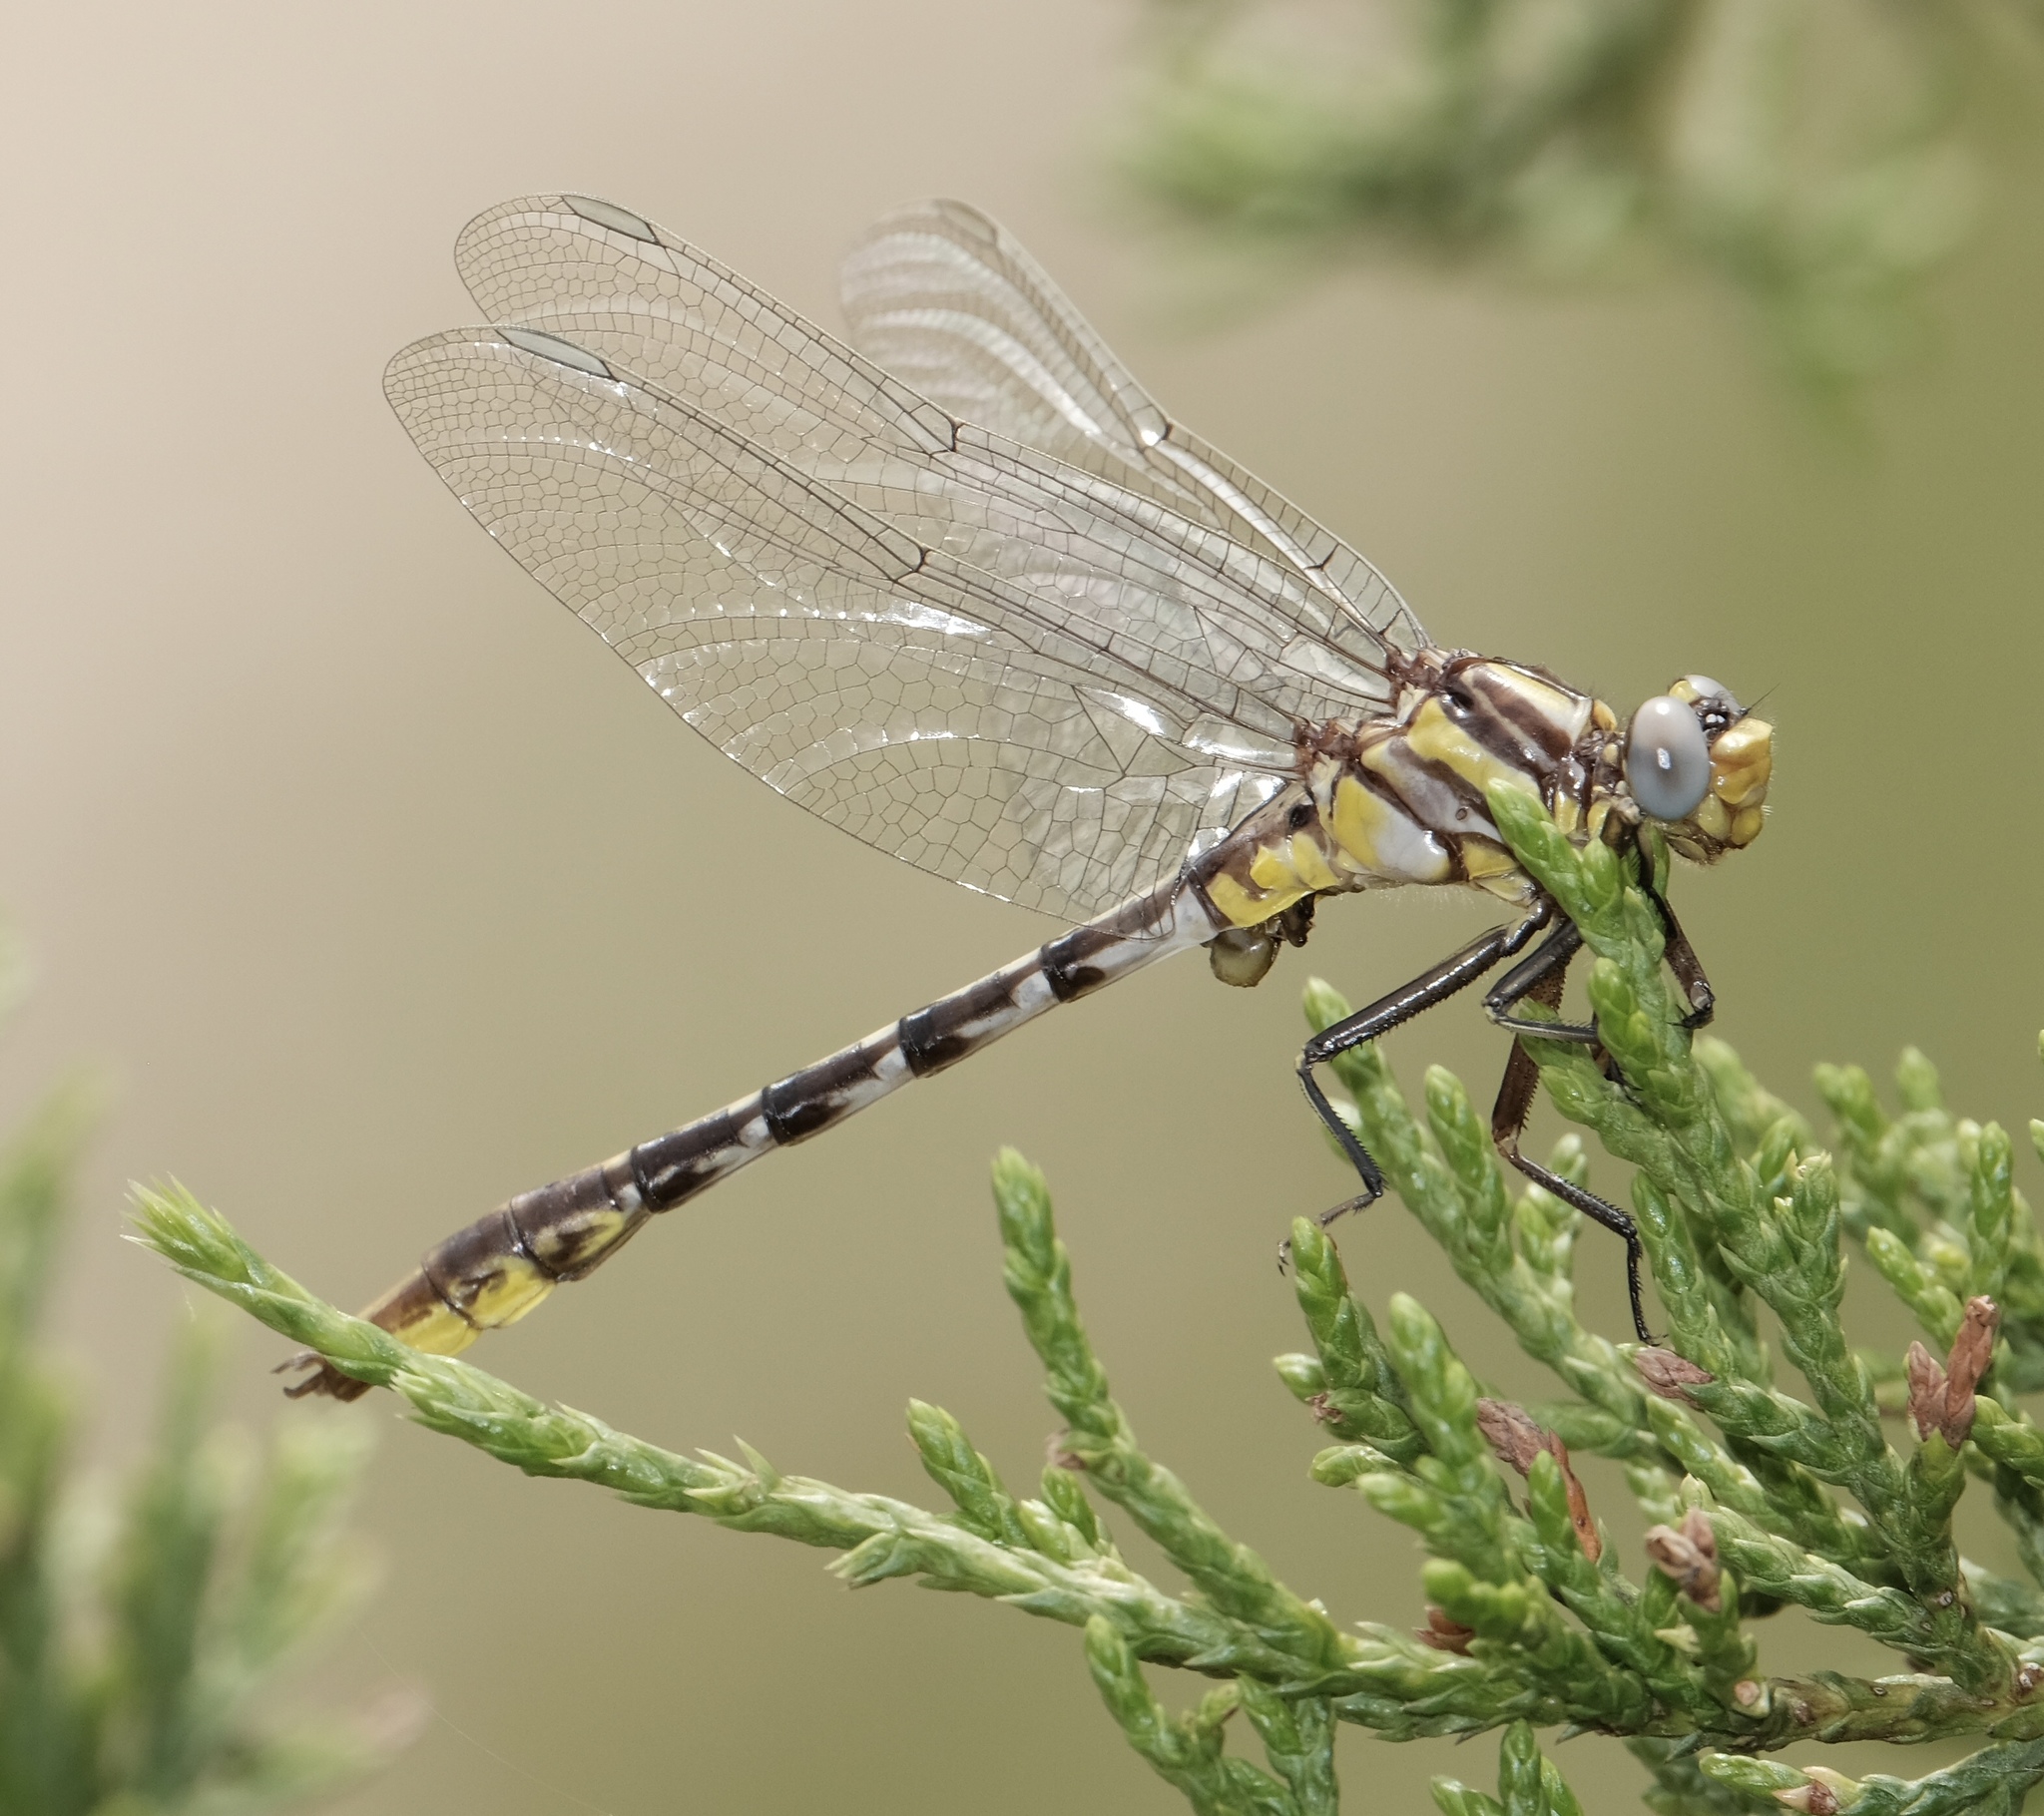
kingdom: Animalia
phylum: Arthropoda
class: Insecta
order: Odonata
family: Gomphidae
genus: Phanogomphus
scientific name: Phanogomphus militaris
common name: Sulphur-tipped clubtail
